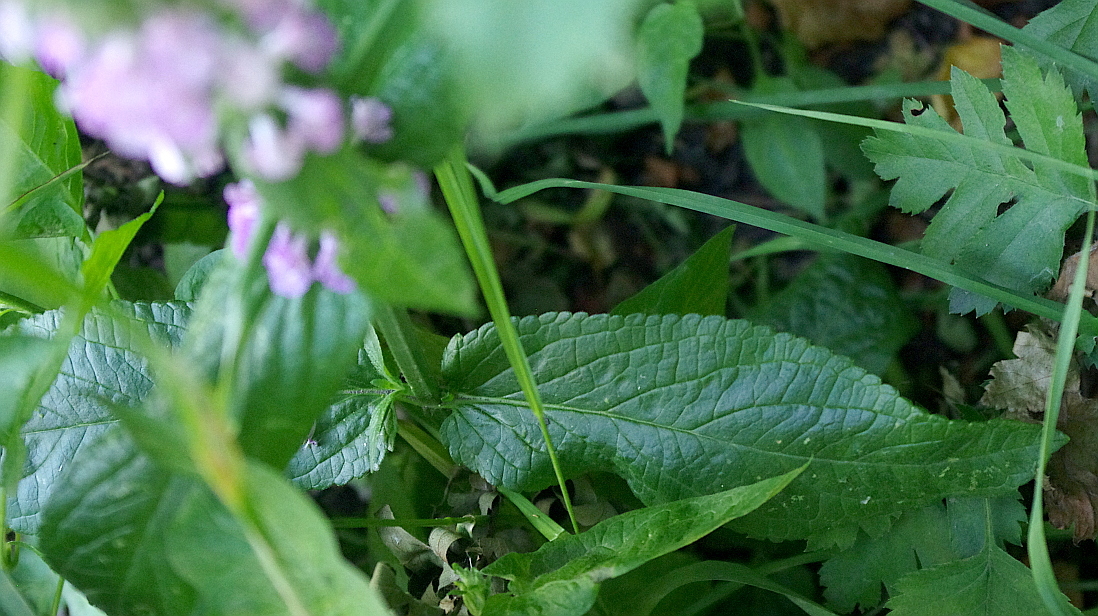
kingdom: Plantae
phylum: Tracheophyta
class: Magnoliopsida
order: Lamiales
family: Lamiaceae
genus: Stachys
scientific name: Stachys palustris
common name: Marsh woundwort
